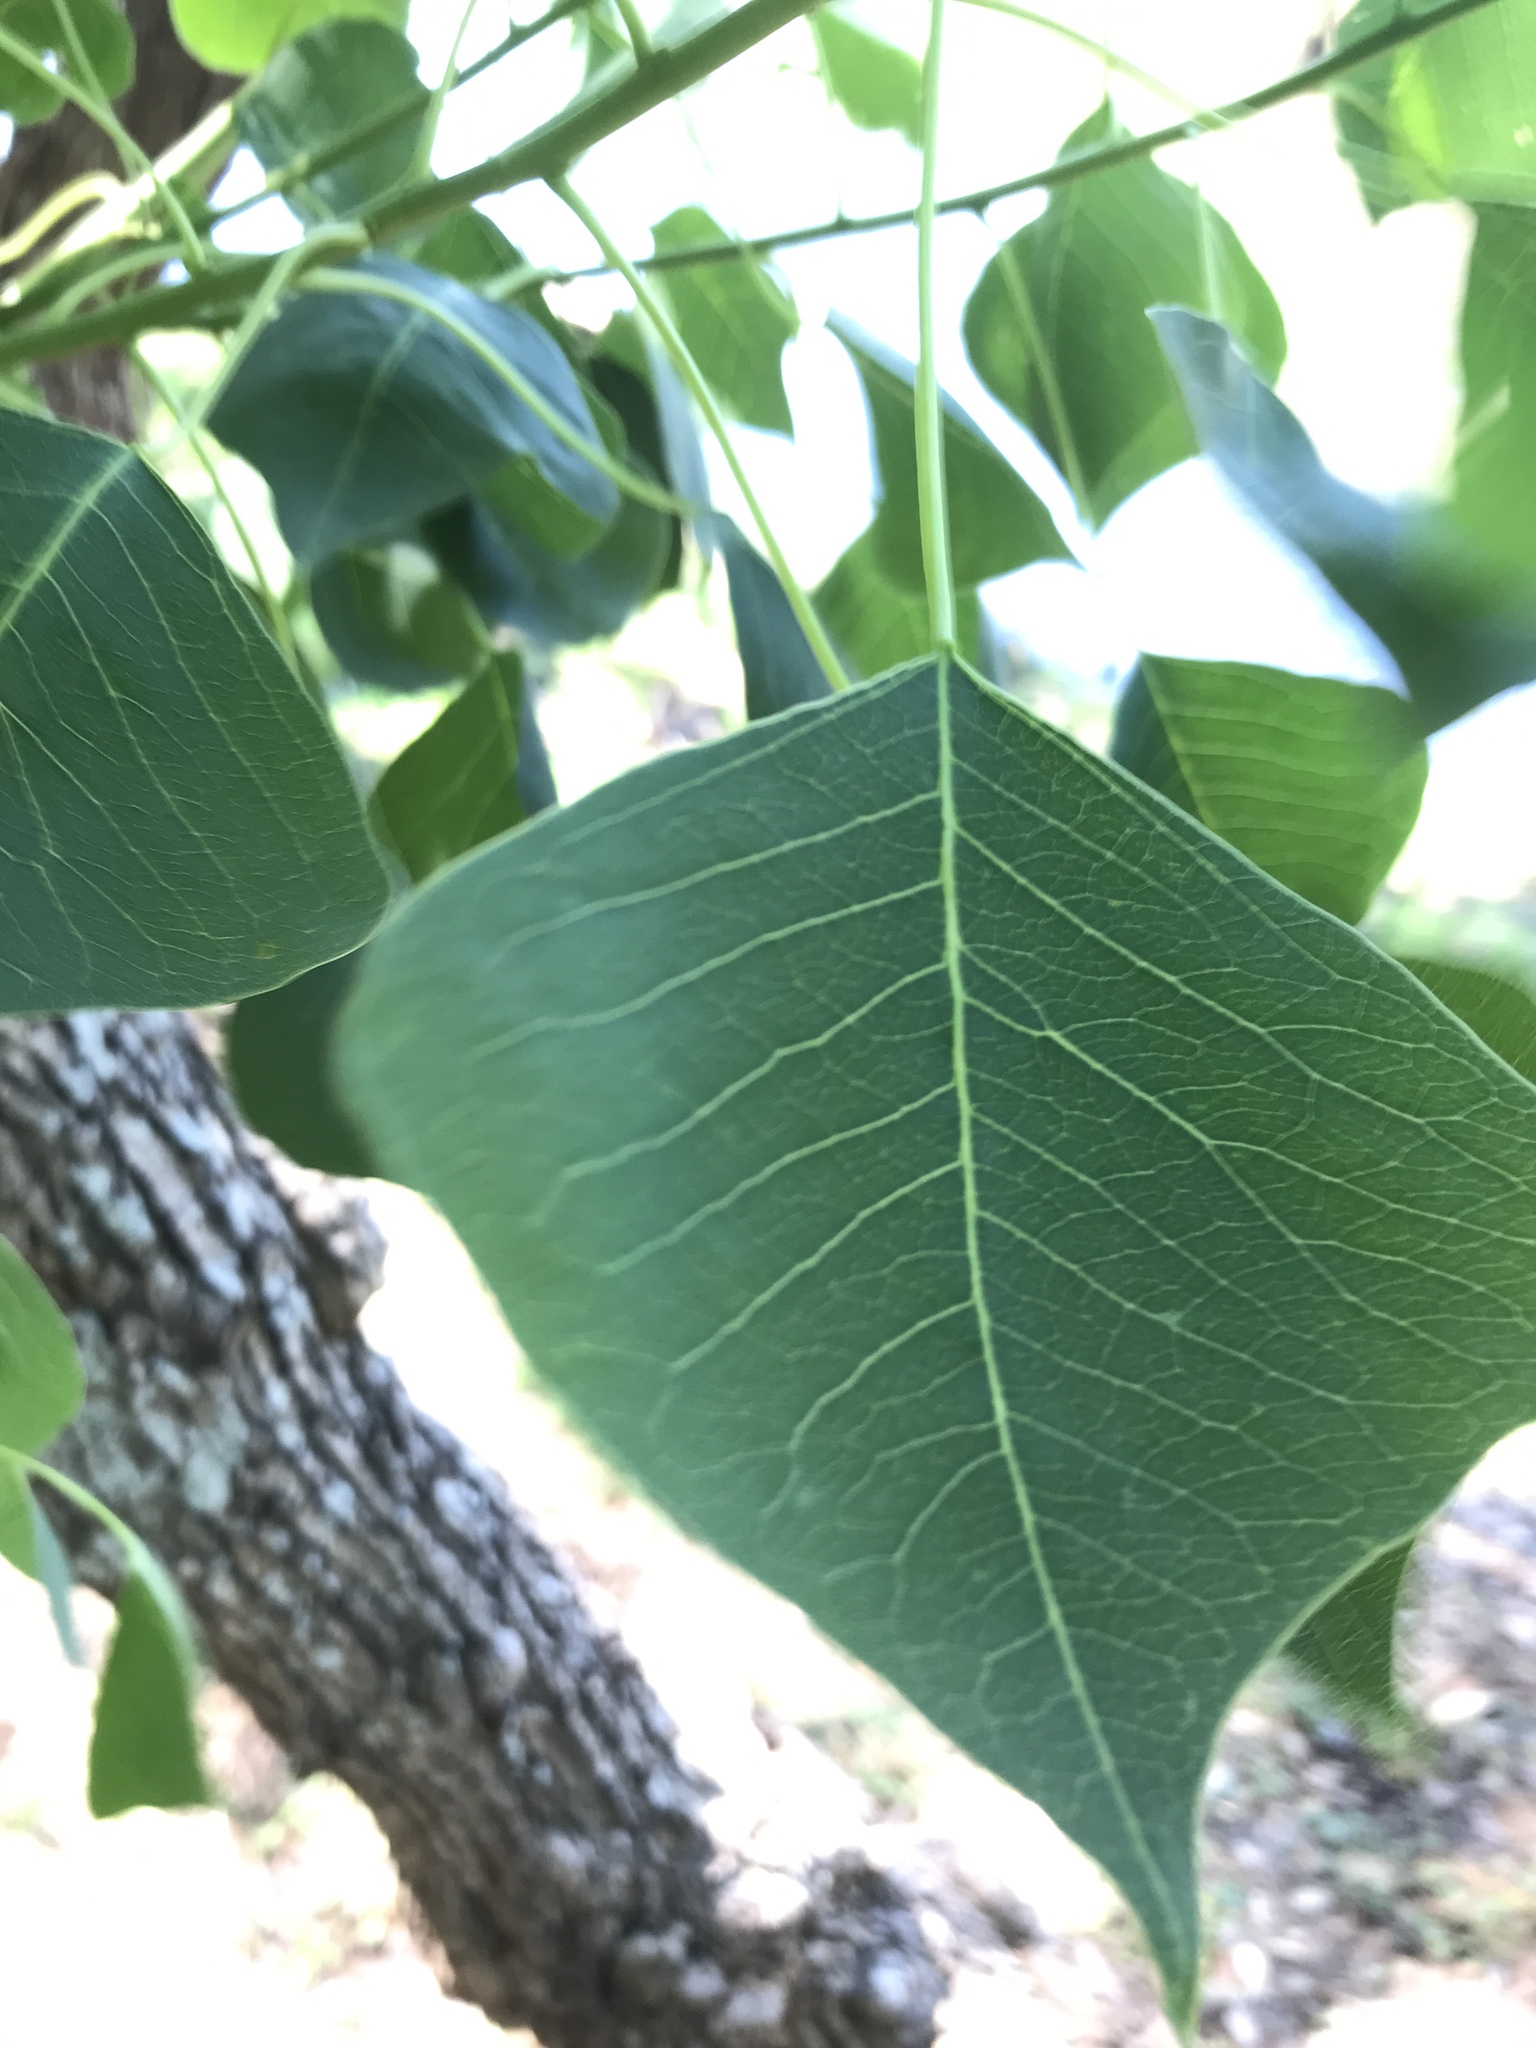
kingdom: Plantae
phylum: Tracheophyta
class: Magnoliopsida
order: Malpighiales
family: Euphorbiaceae
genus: Triadica
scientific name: Triadica sebifera
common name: Chinese tallow
